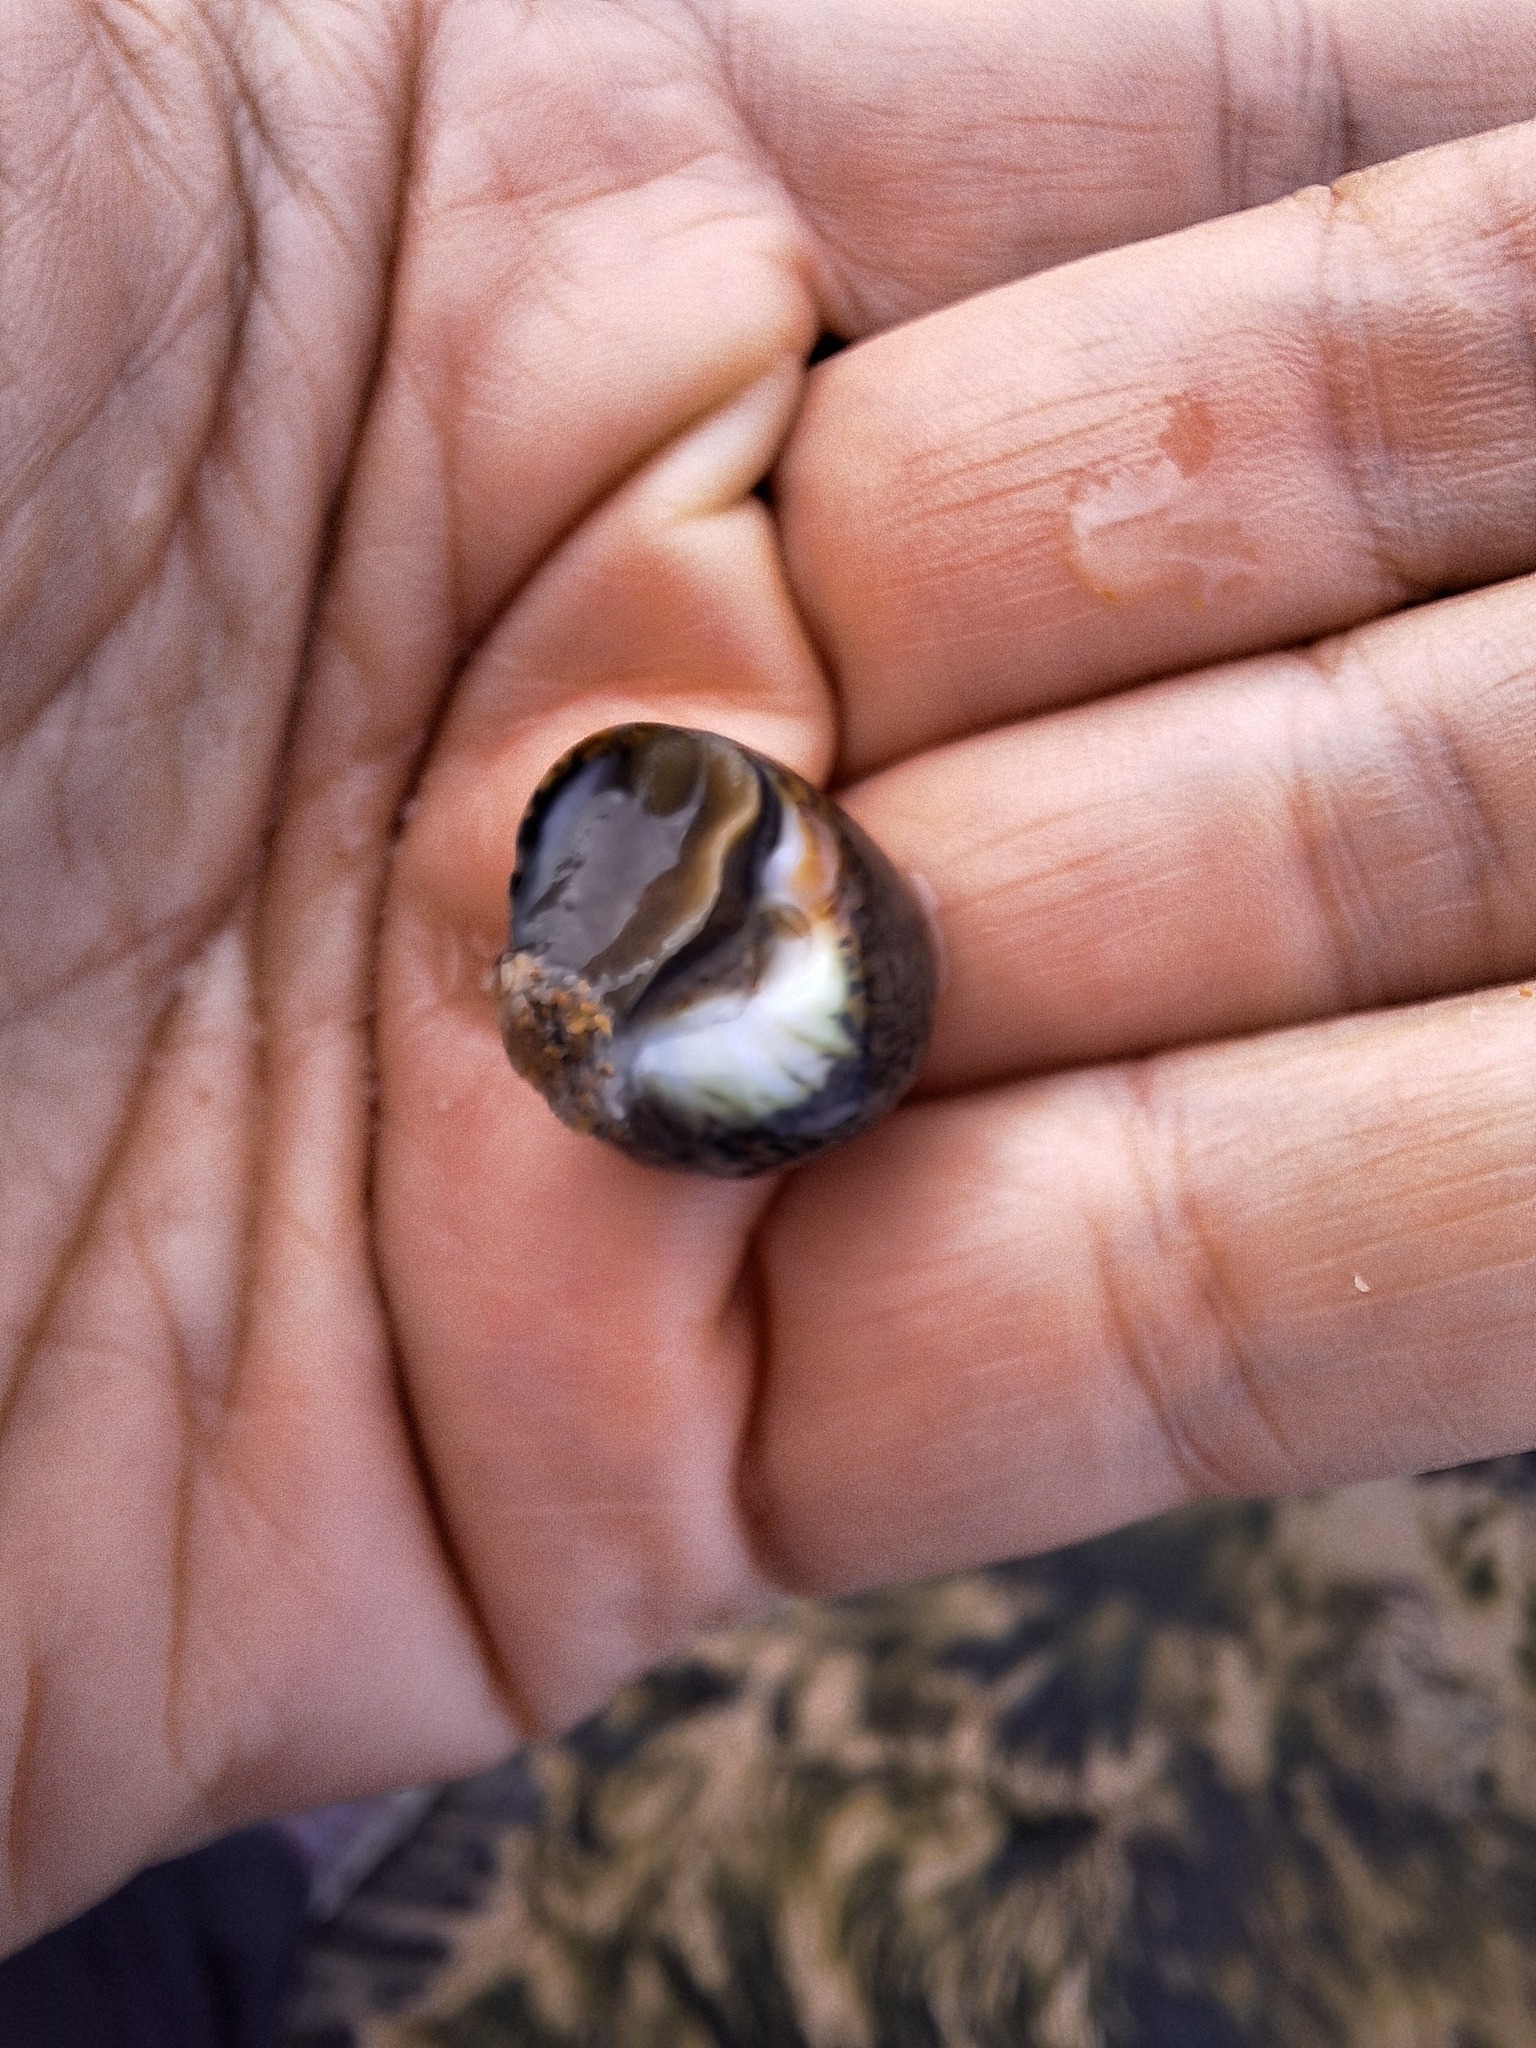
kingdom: Animalia
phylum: Mollusca
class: Gastropoda
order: Trochida
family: Trochidae
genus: Phorcus
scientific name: Phorcus lineatus
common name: Toothed top shell
